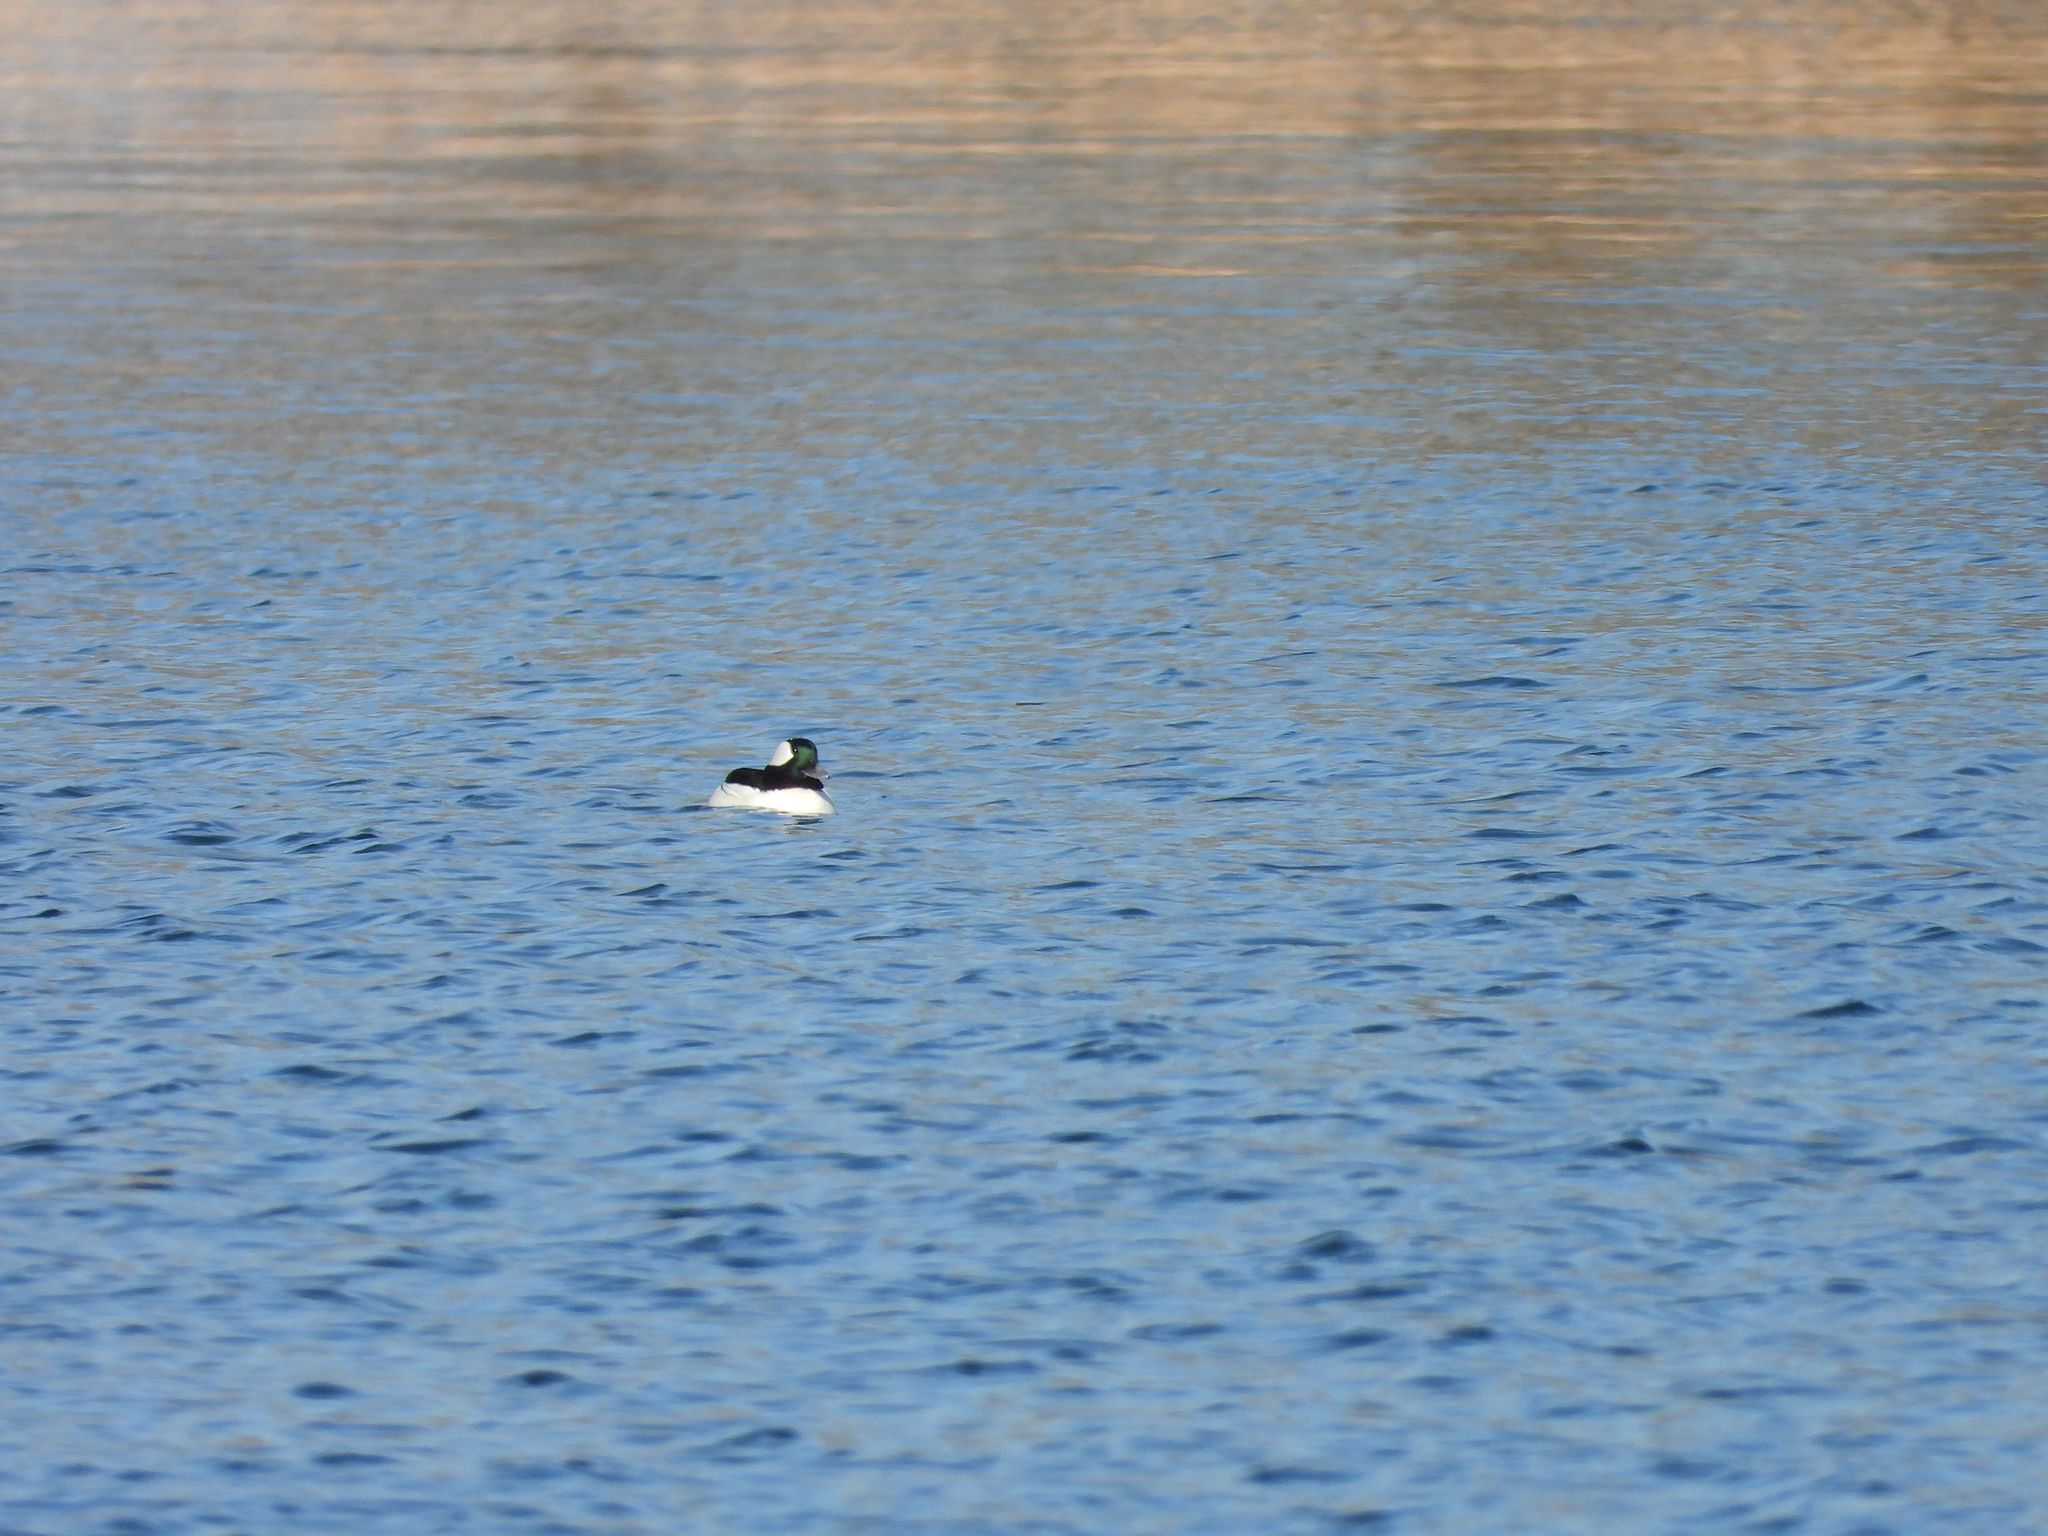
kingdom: Animalia
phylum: Chordata
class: Aves
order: Anseriformes
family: Anatidae
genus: Bucephala
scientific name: Bucephala albeola
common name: Bufflehead
